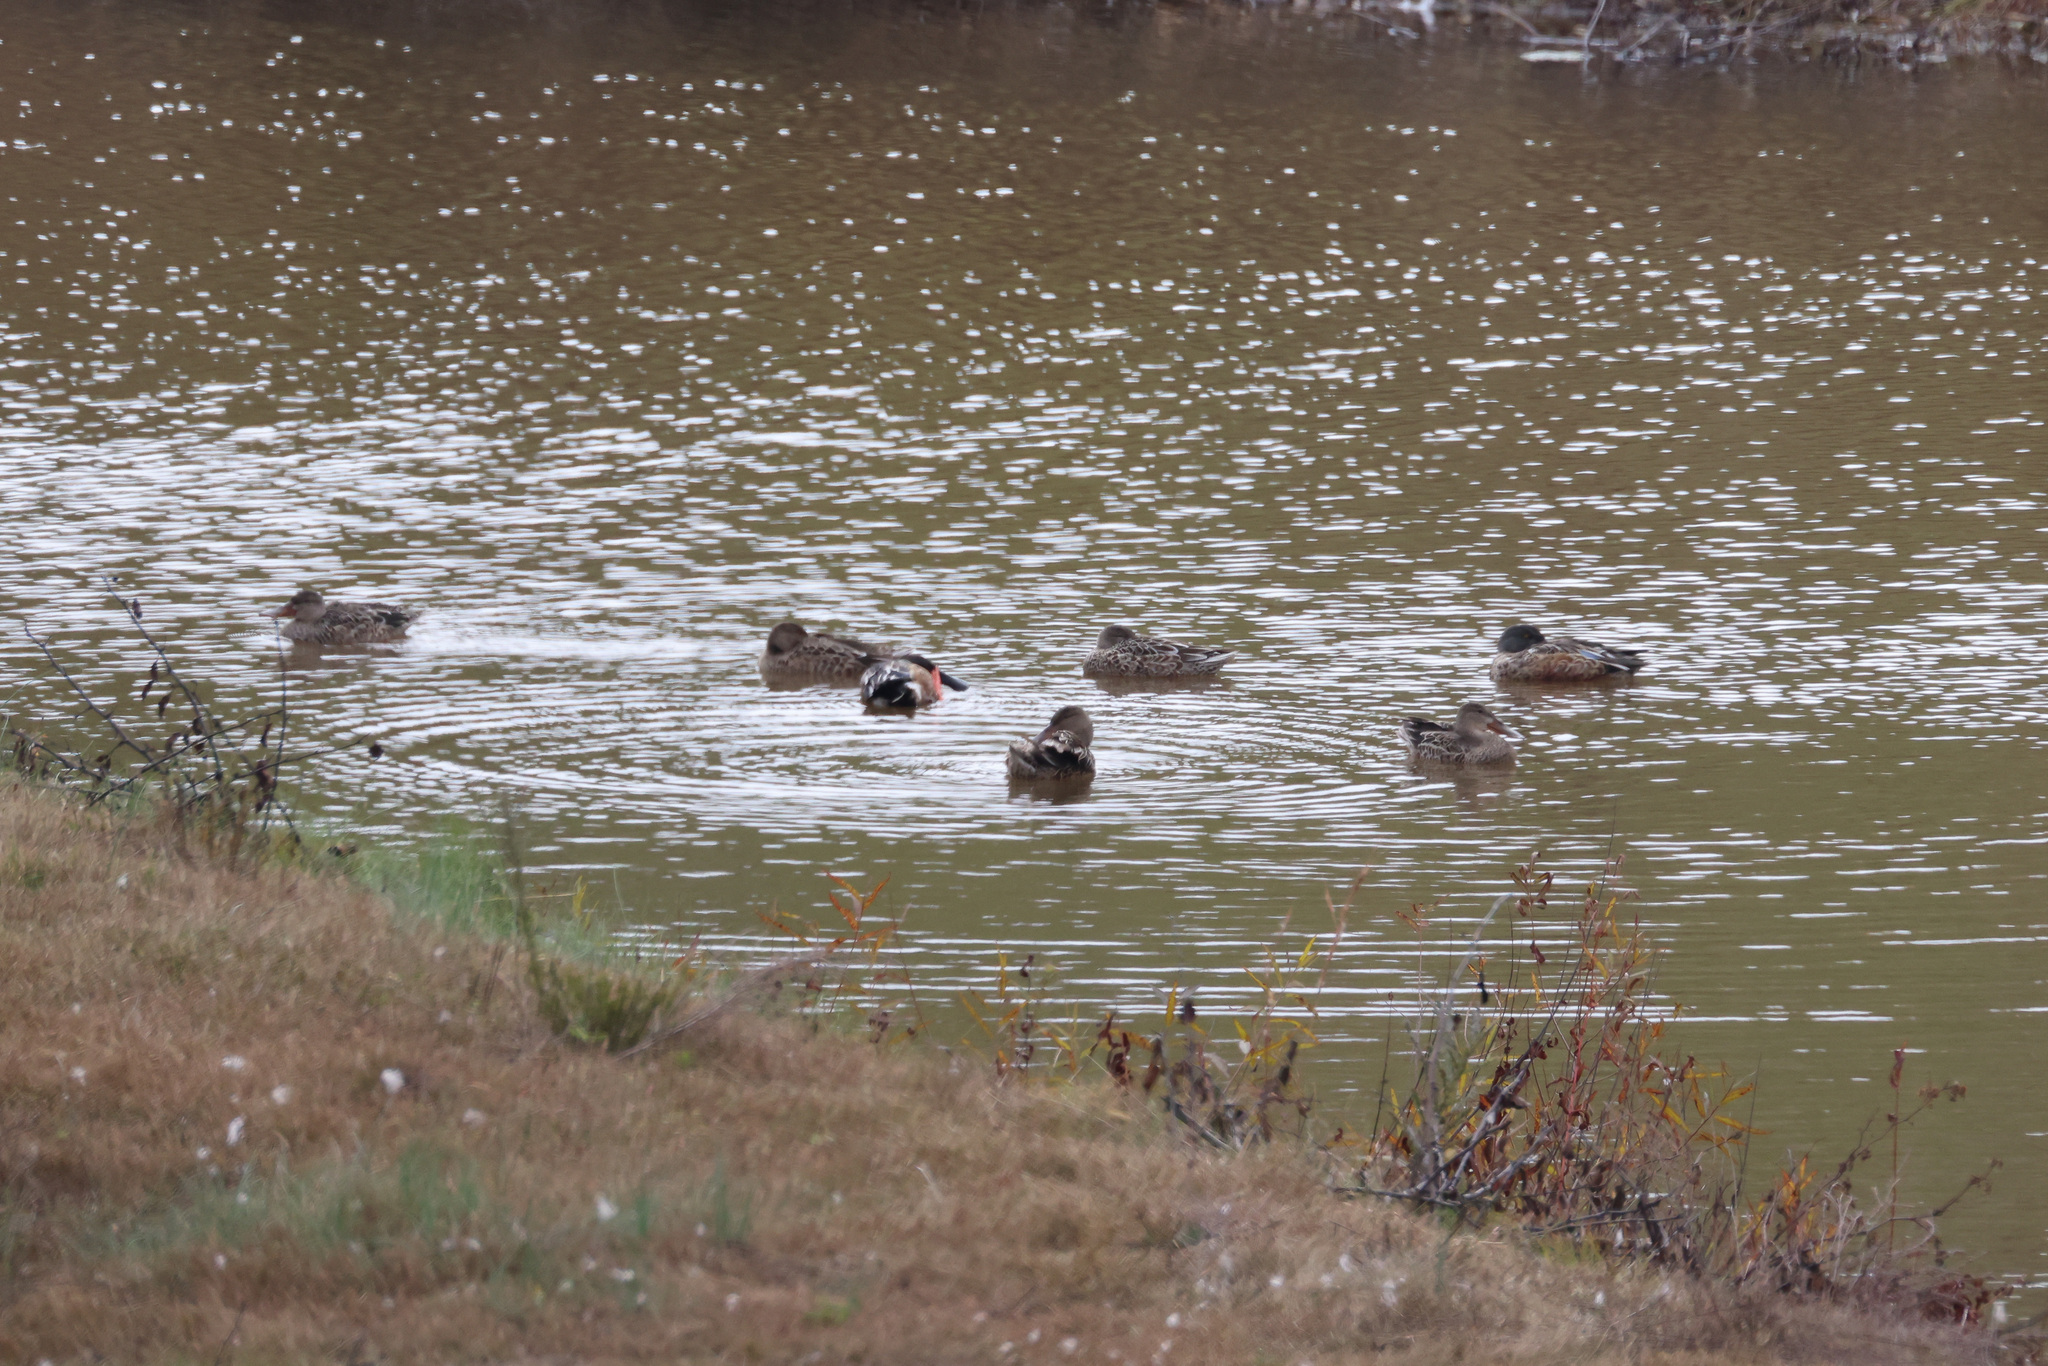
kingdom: Animalia
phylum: Chordata
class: Aves
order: Anseriformes
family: Anatidae
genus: Spatula
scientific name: Spatula clypeata
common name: Northern shoveler
